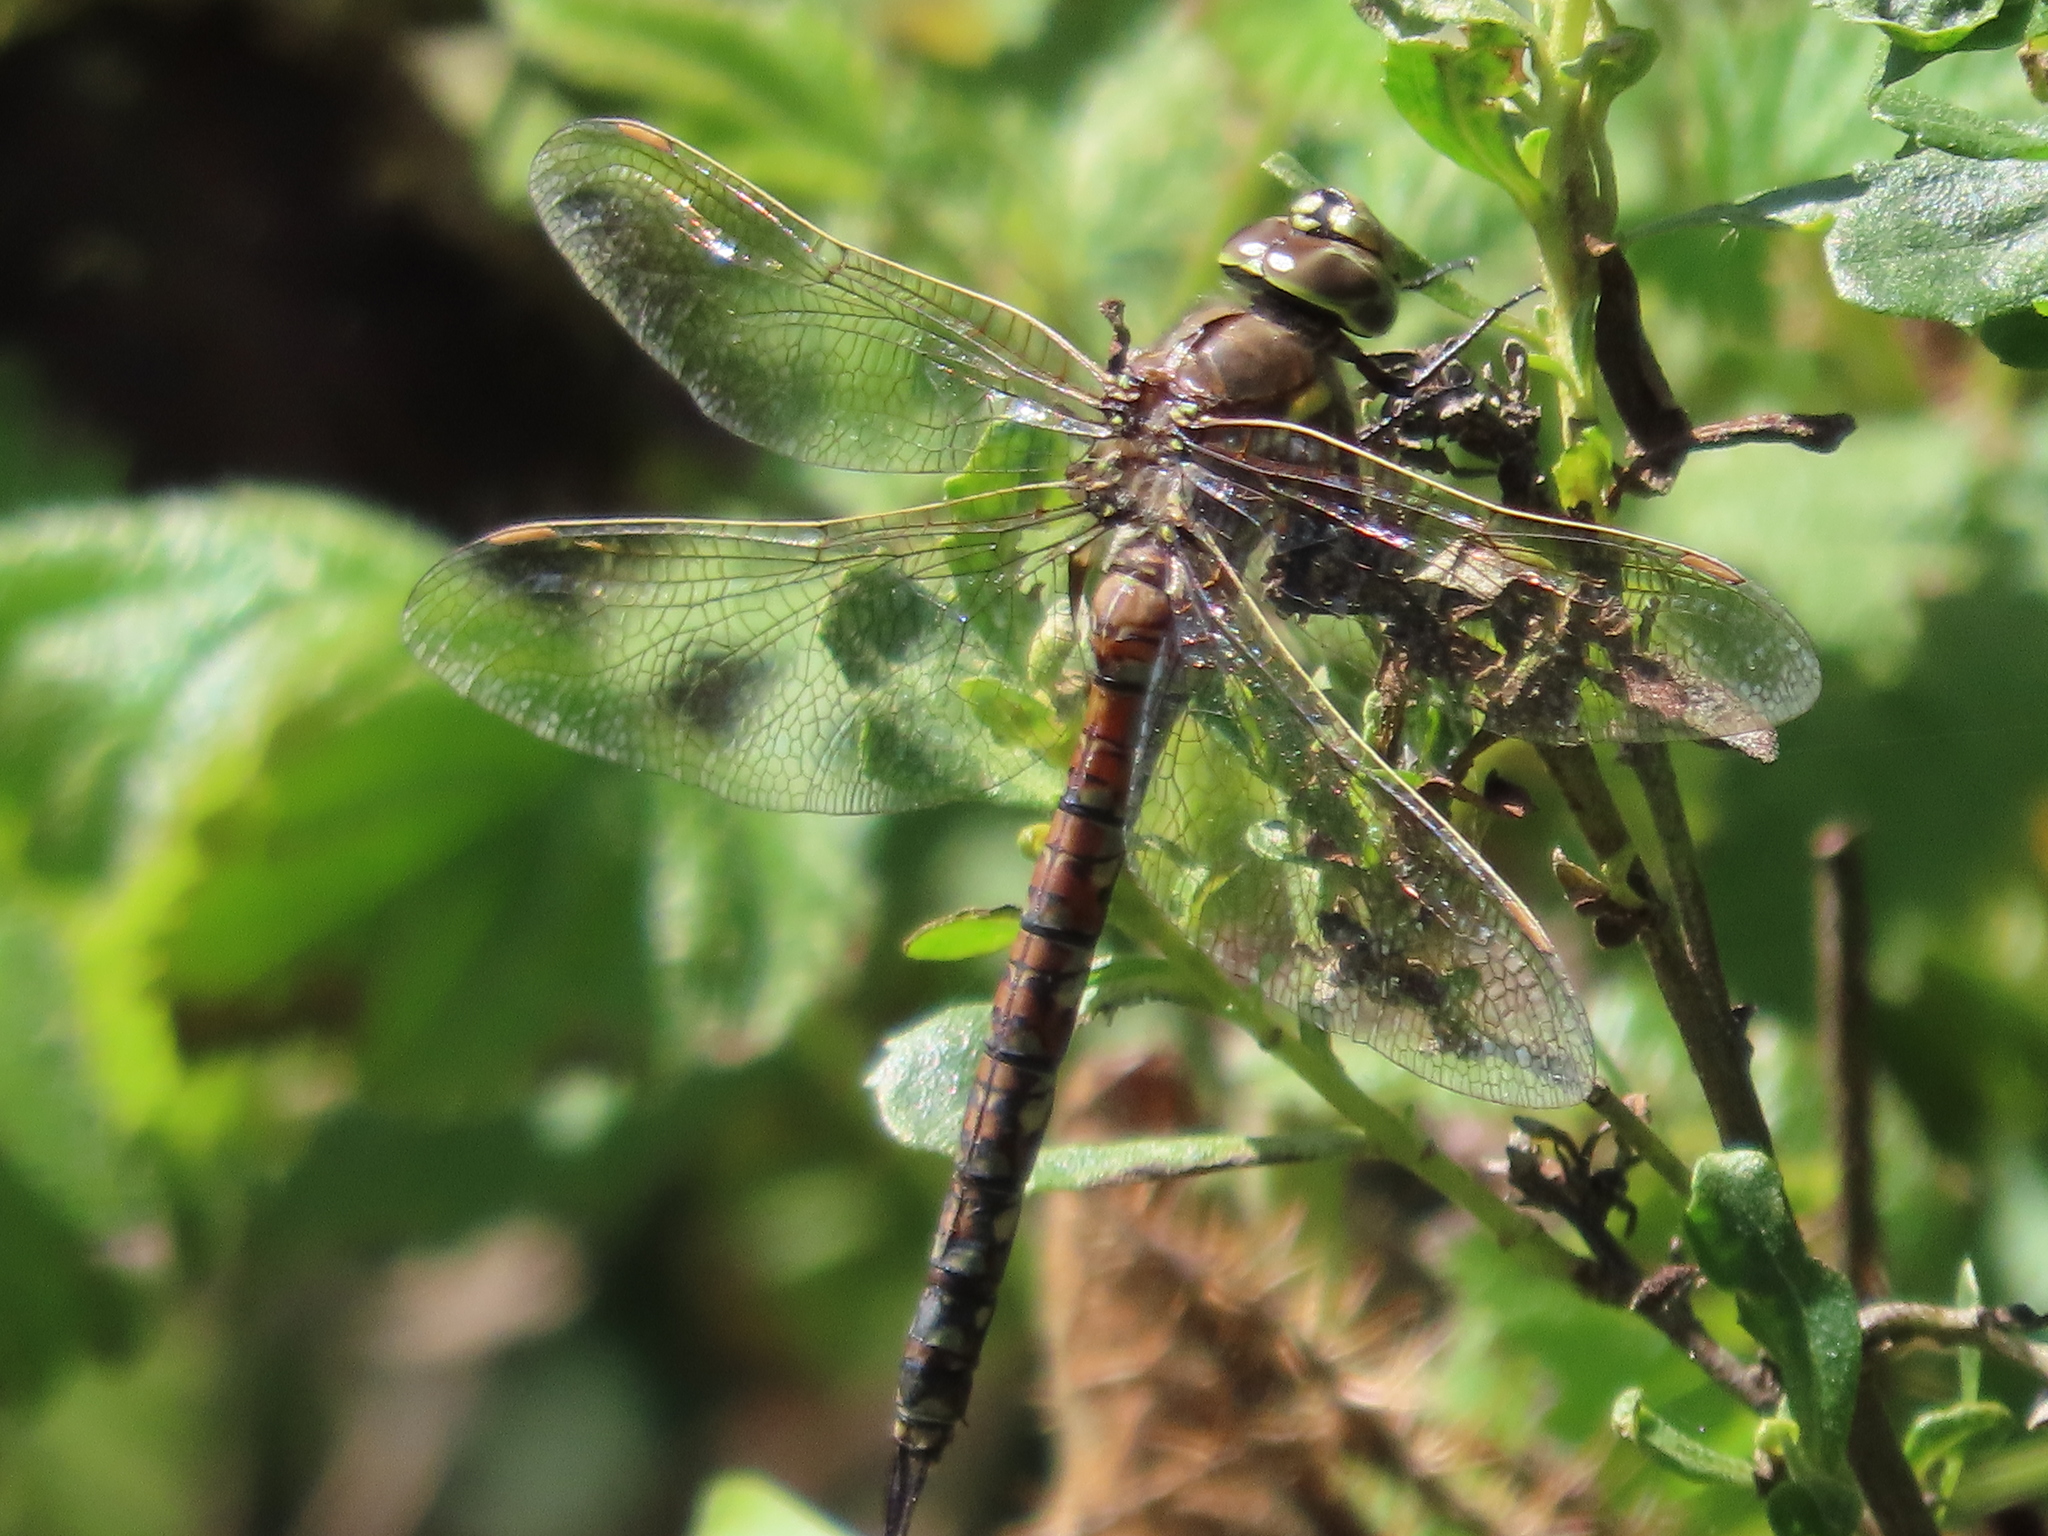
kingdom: Animalia
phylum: Arthropoda
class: Insecta
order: Odonata
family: Aeshnidae
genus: Rhionaeschna
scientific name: Rhionaeschna californica
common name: California darner
